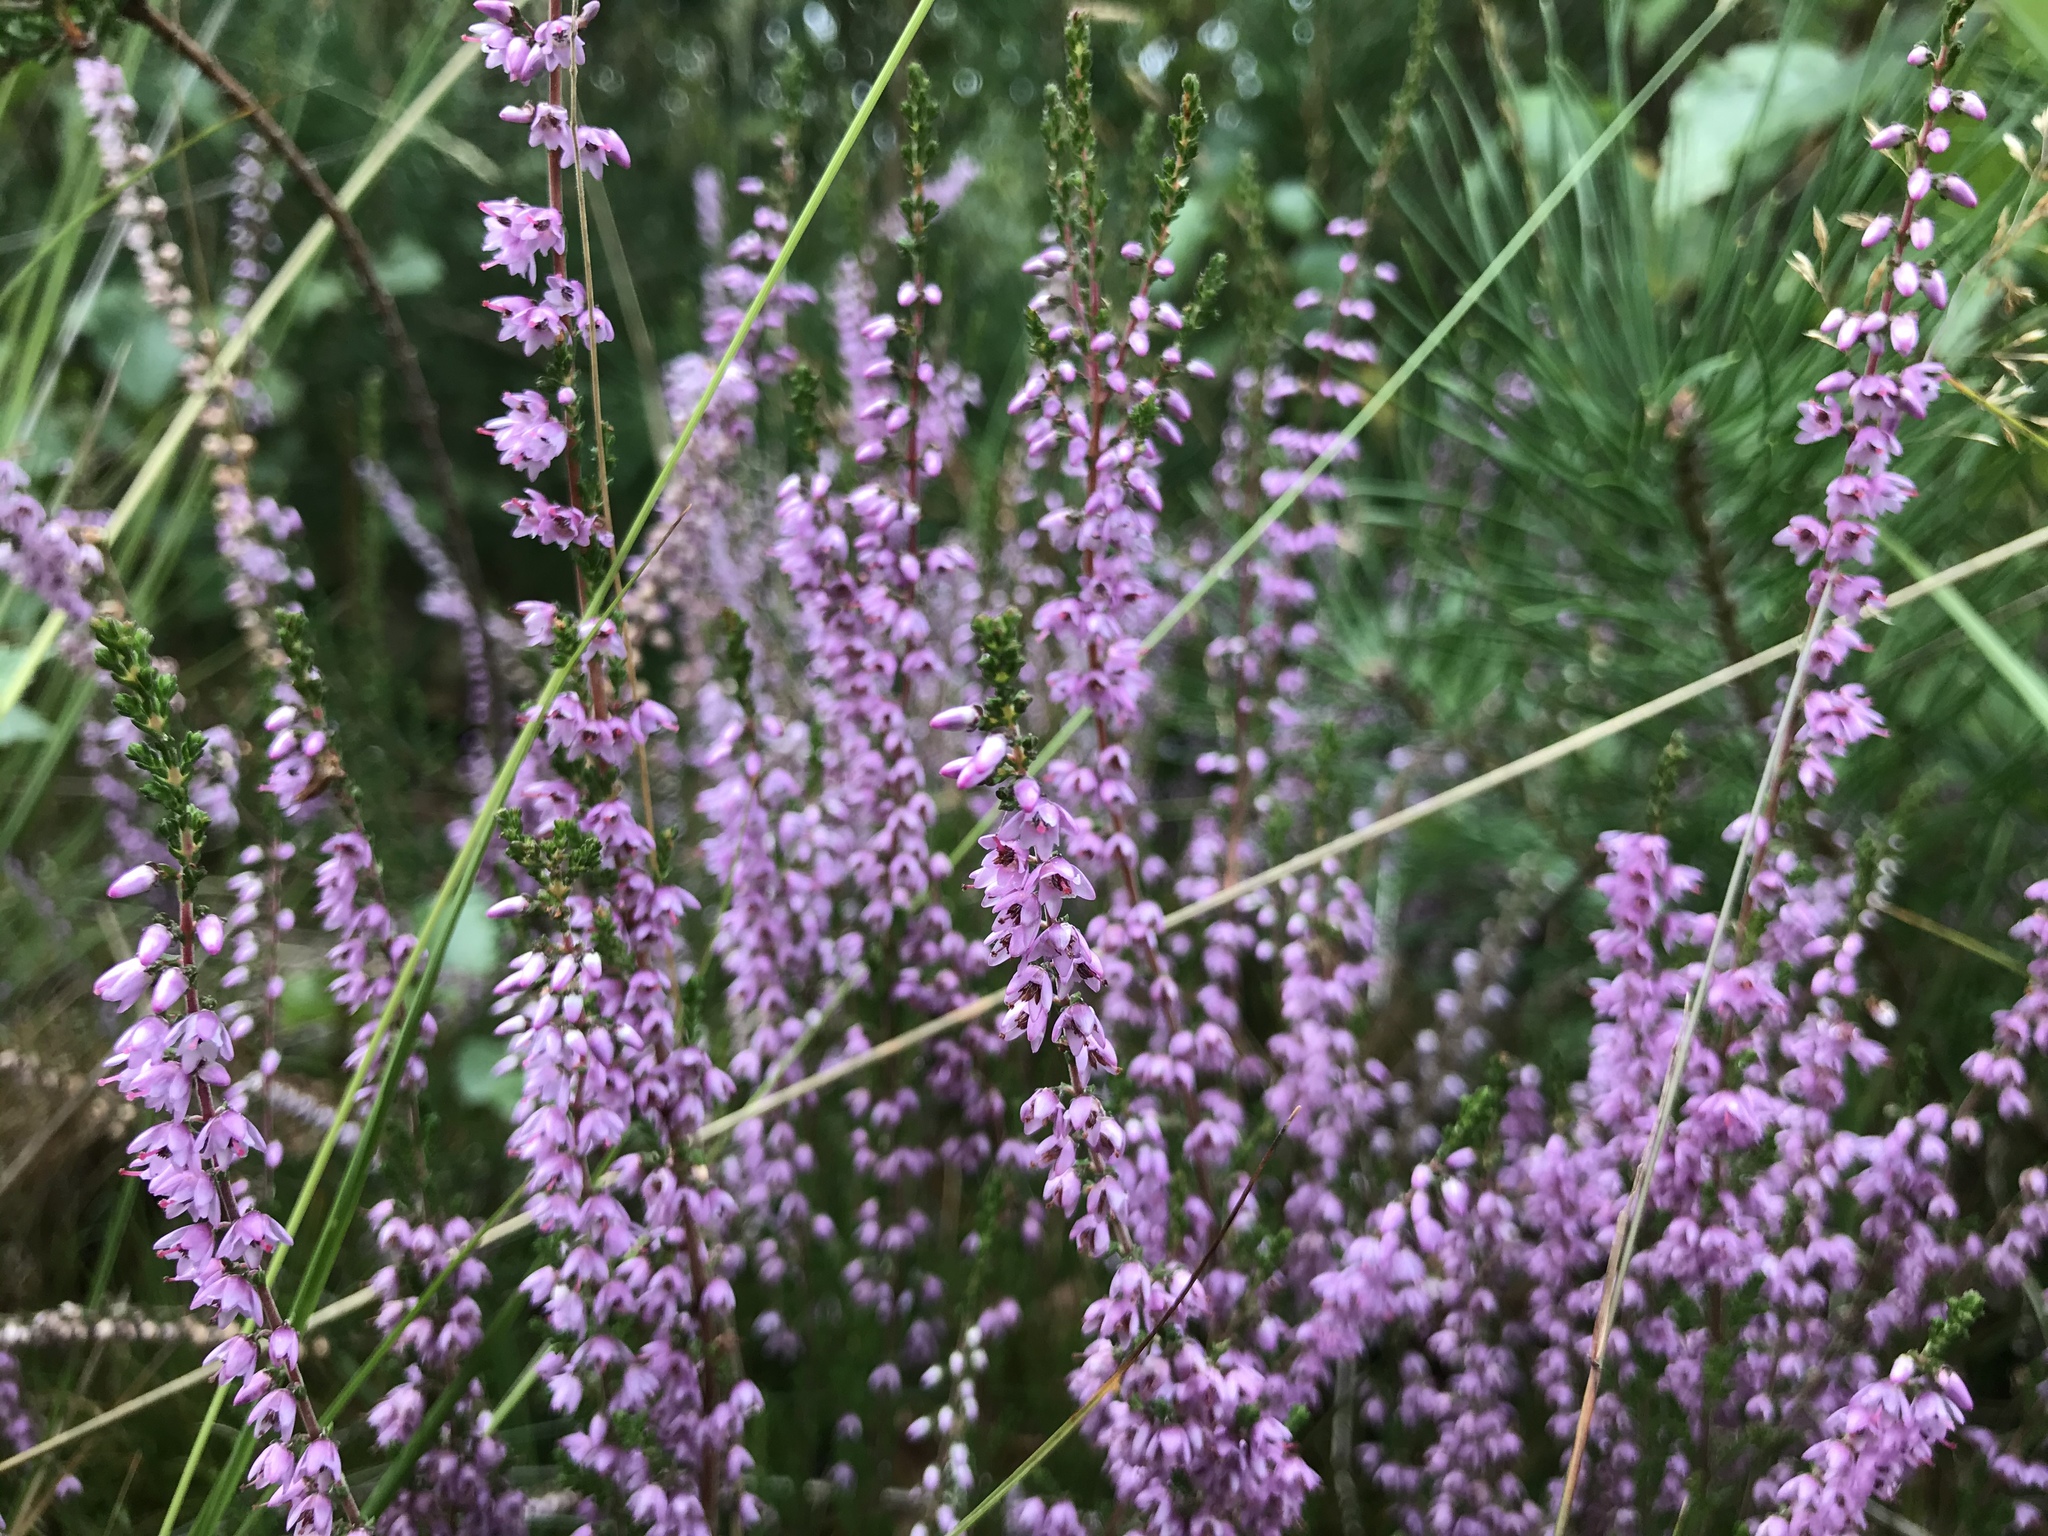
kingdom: Plantae
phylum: Tracheophyta
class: Magnoliopsida
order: Ericales
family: Ericaceae
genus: Calluna
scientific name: Calluna vulgaris
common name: Heather
